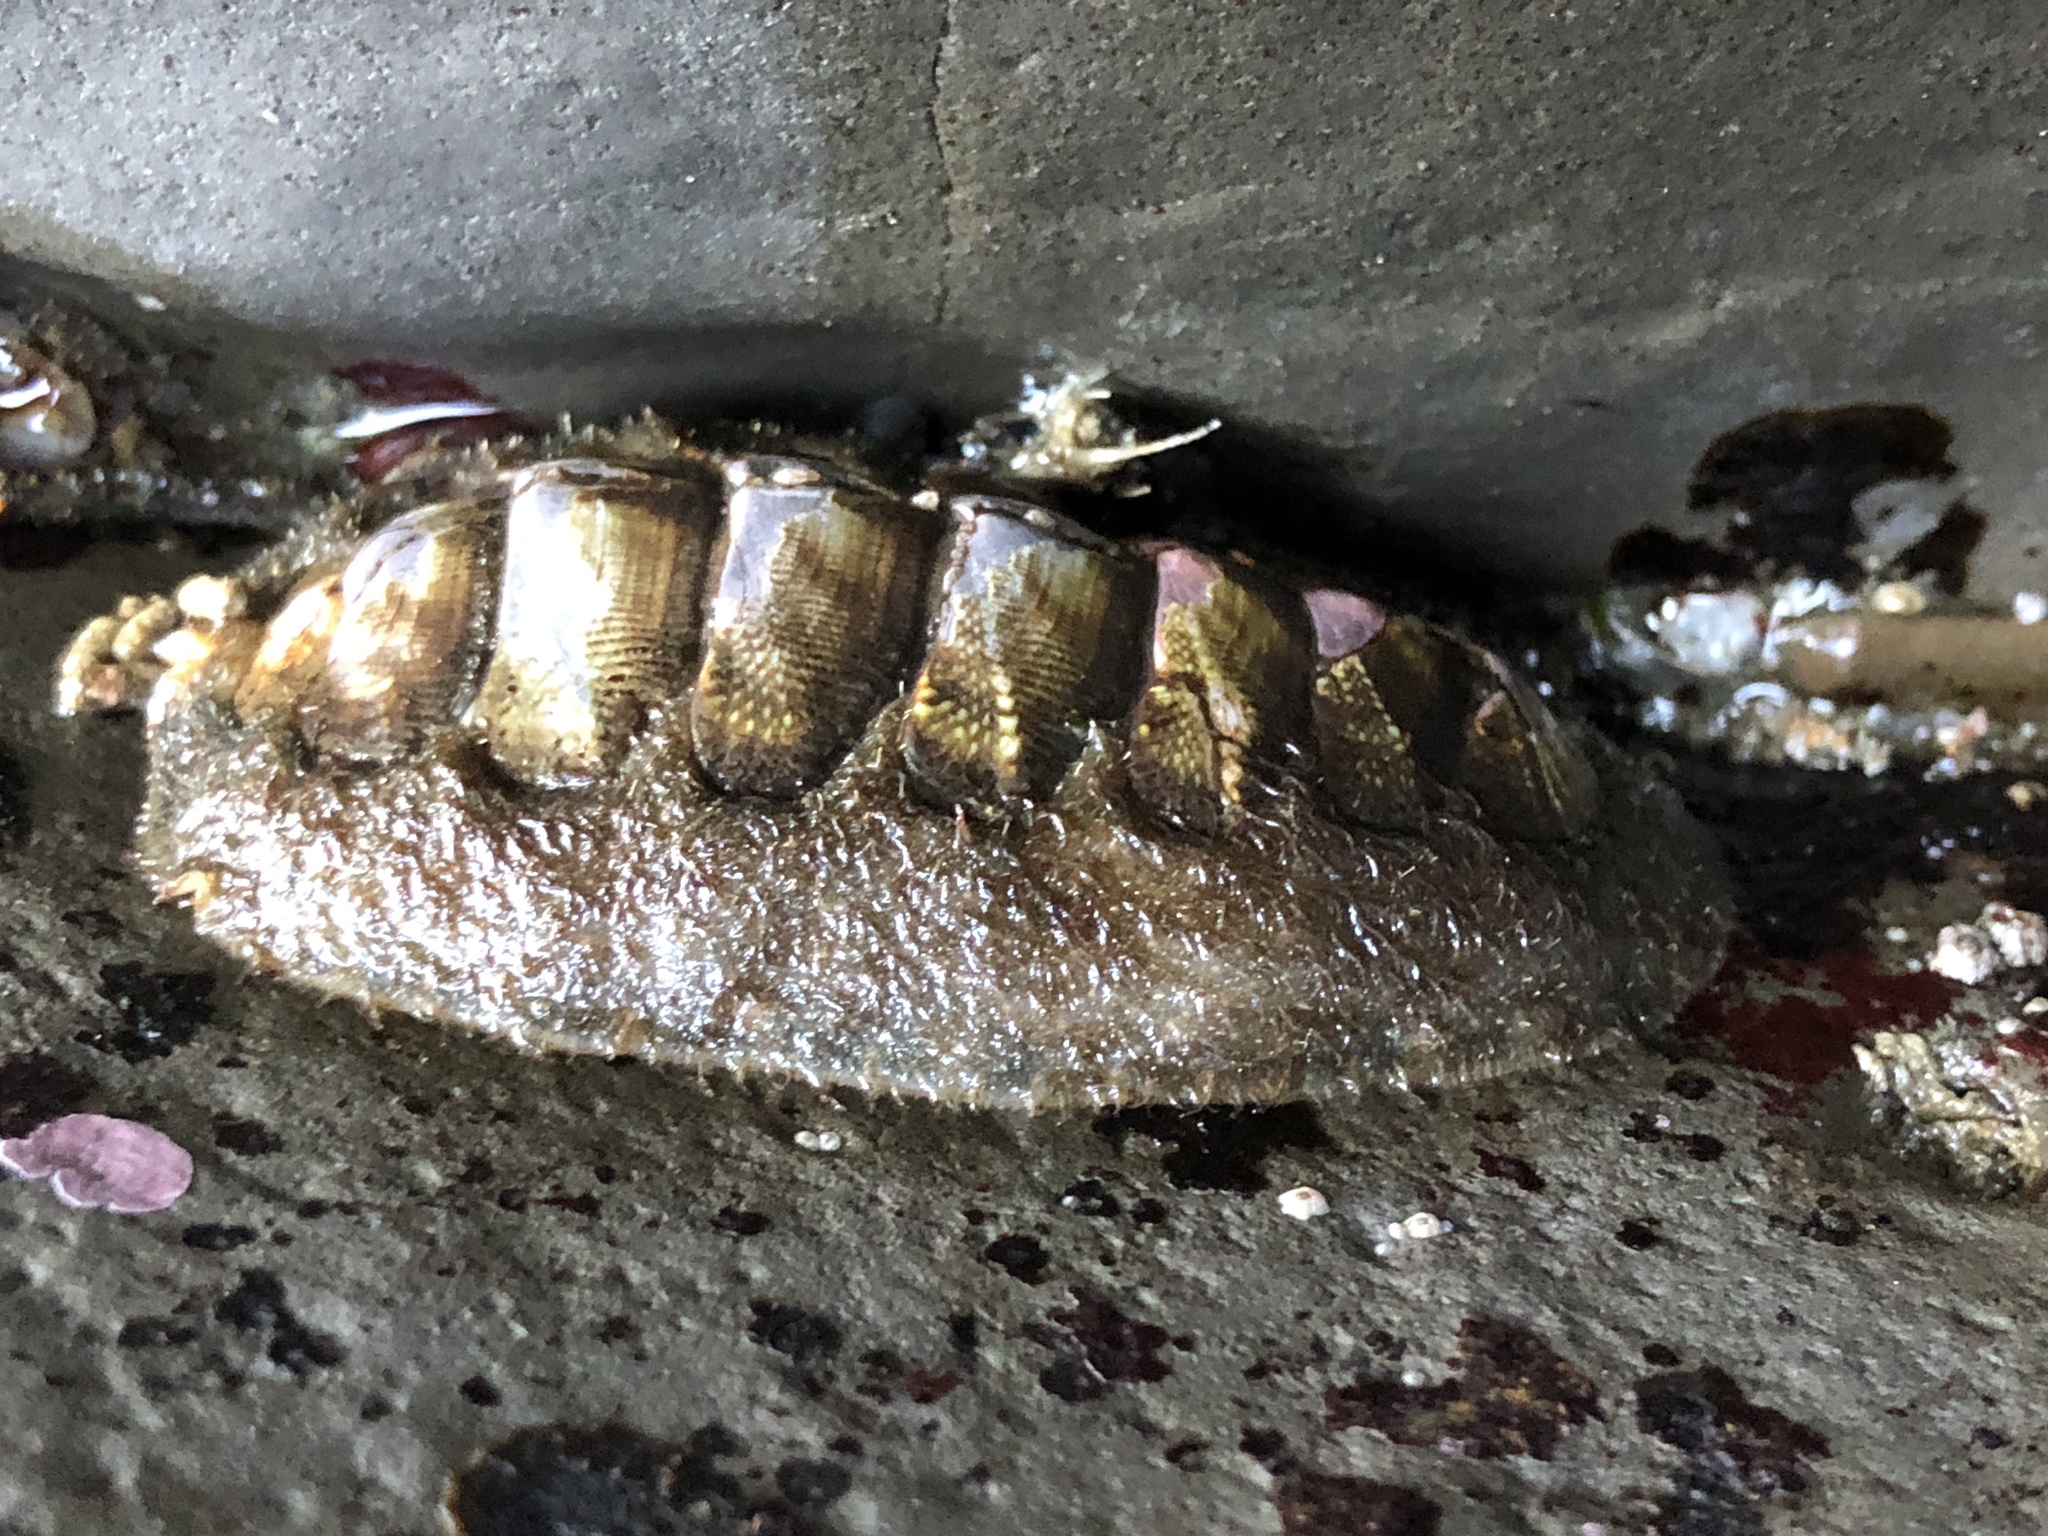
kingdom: Animalia
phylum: Mollusca
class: Polyplacophora
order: Chitonida
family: Mopaliidae
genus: Mopalia
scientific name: Mopalia hindsii
